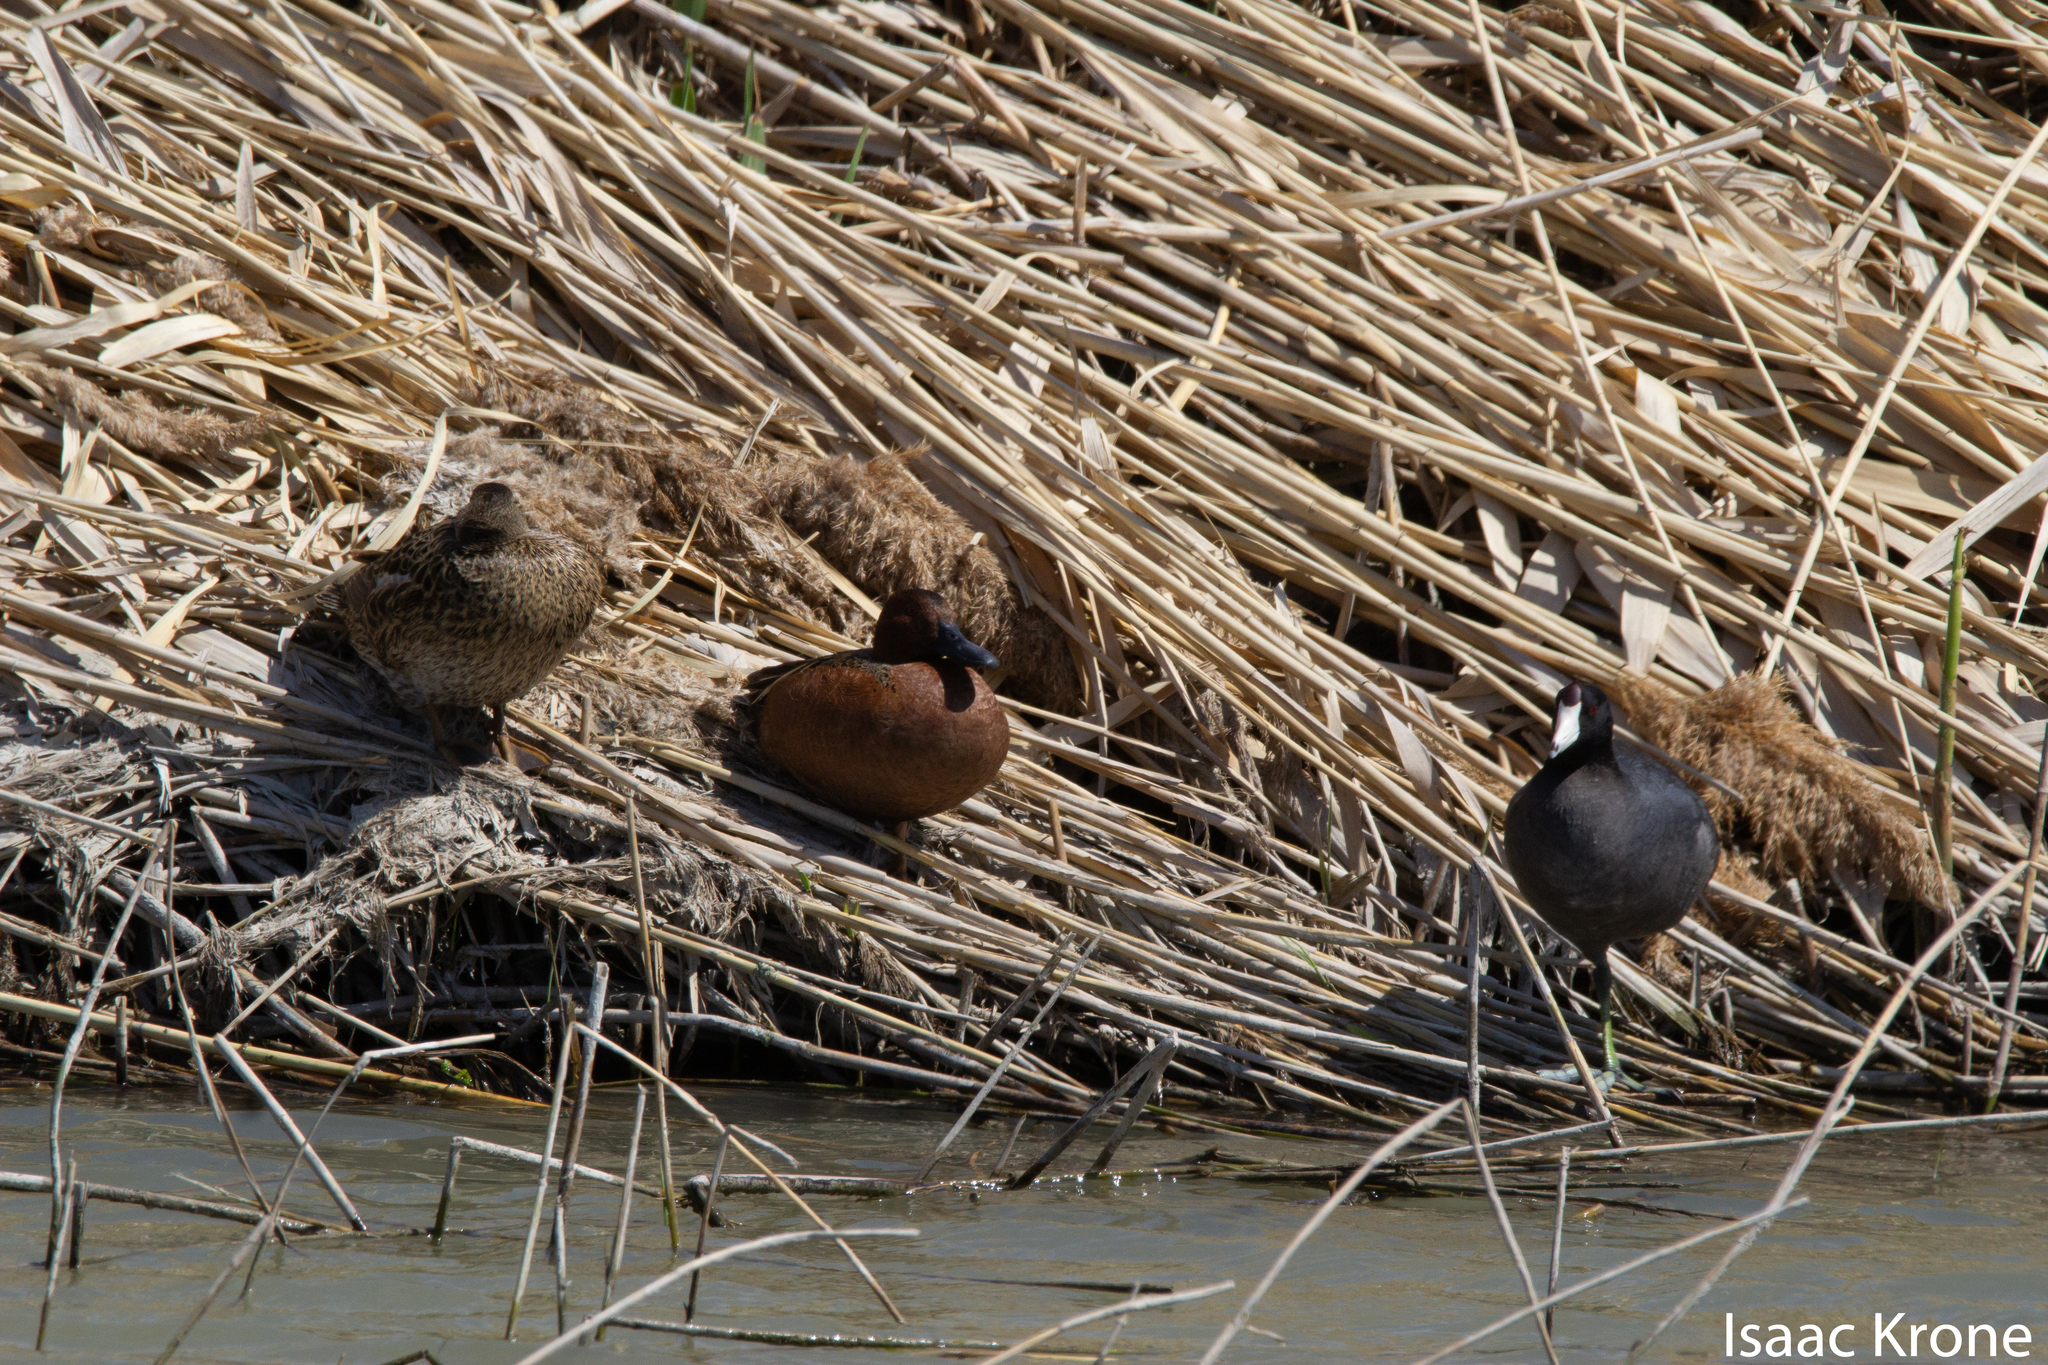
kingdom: Animalia
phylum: Chordata
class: Aves
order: Anseriformes
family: Anatidae
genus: Spatula
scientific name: Spatula cyanoptera
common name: Cinnamon teal
